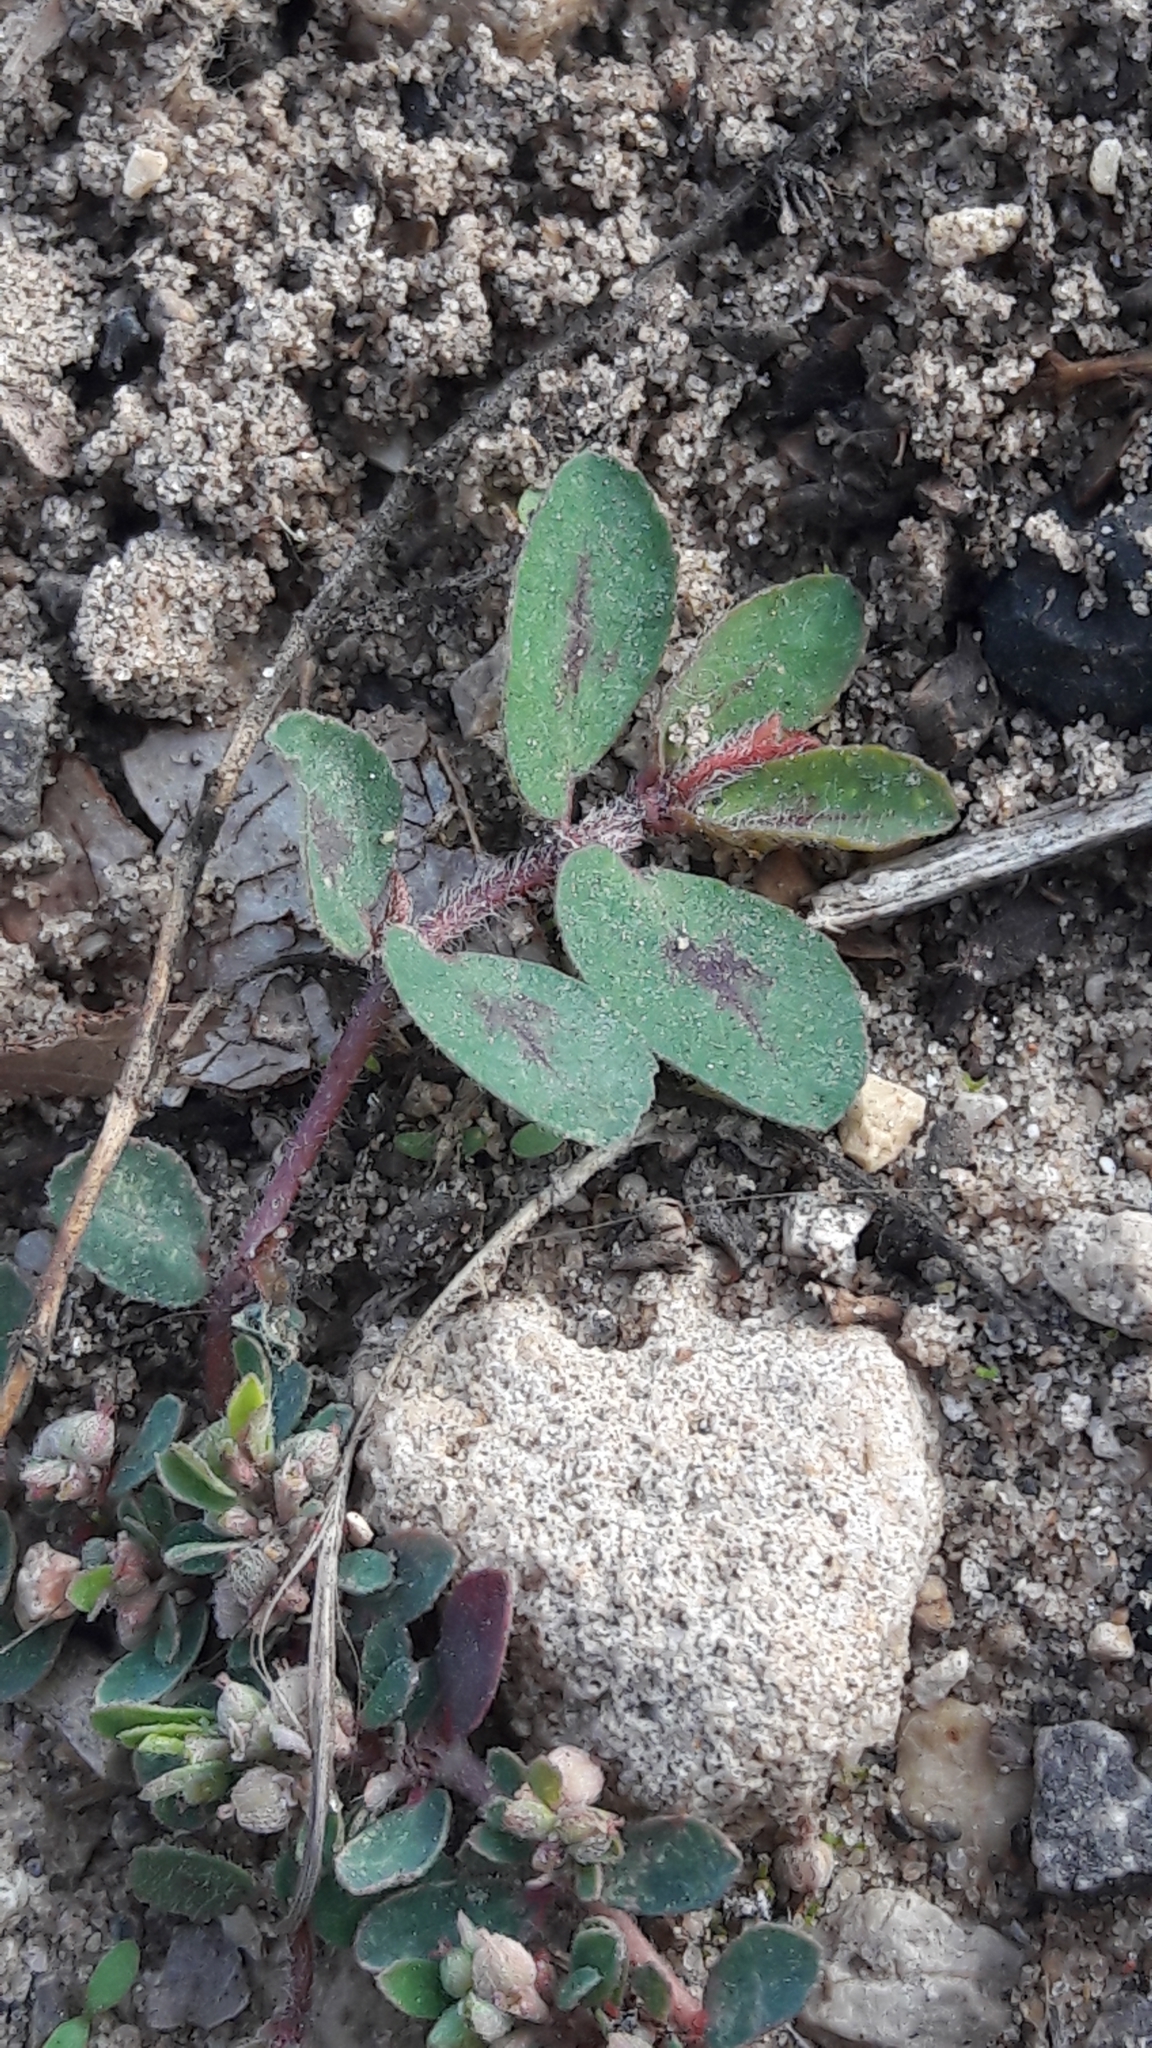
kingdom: Plantae
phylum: Tracheophyta
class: Magnoliopsida
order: Malpighiales
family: Euphorbiaceae
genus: Euphorbia
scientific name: Euphorbia maculata
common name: Spotted spurge
